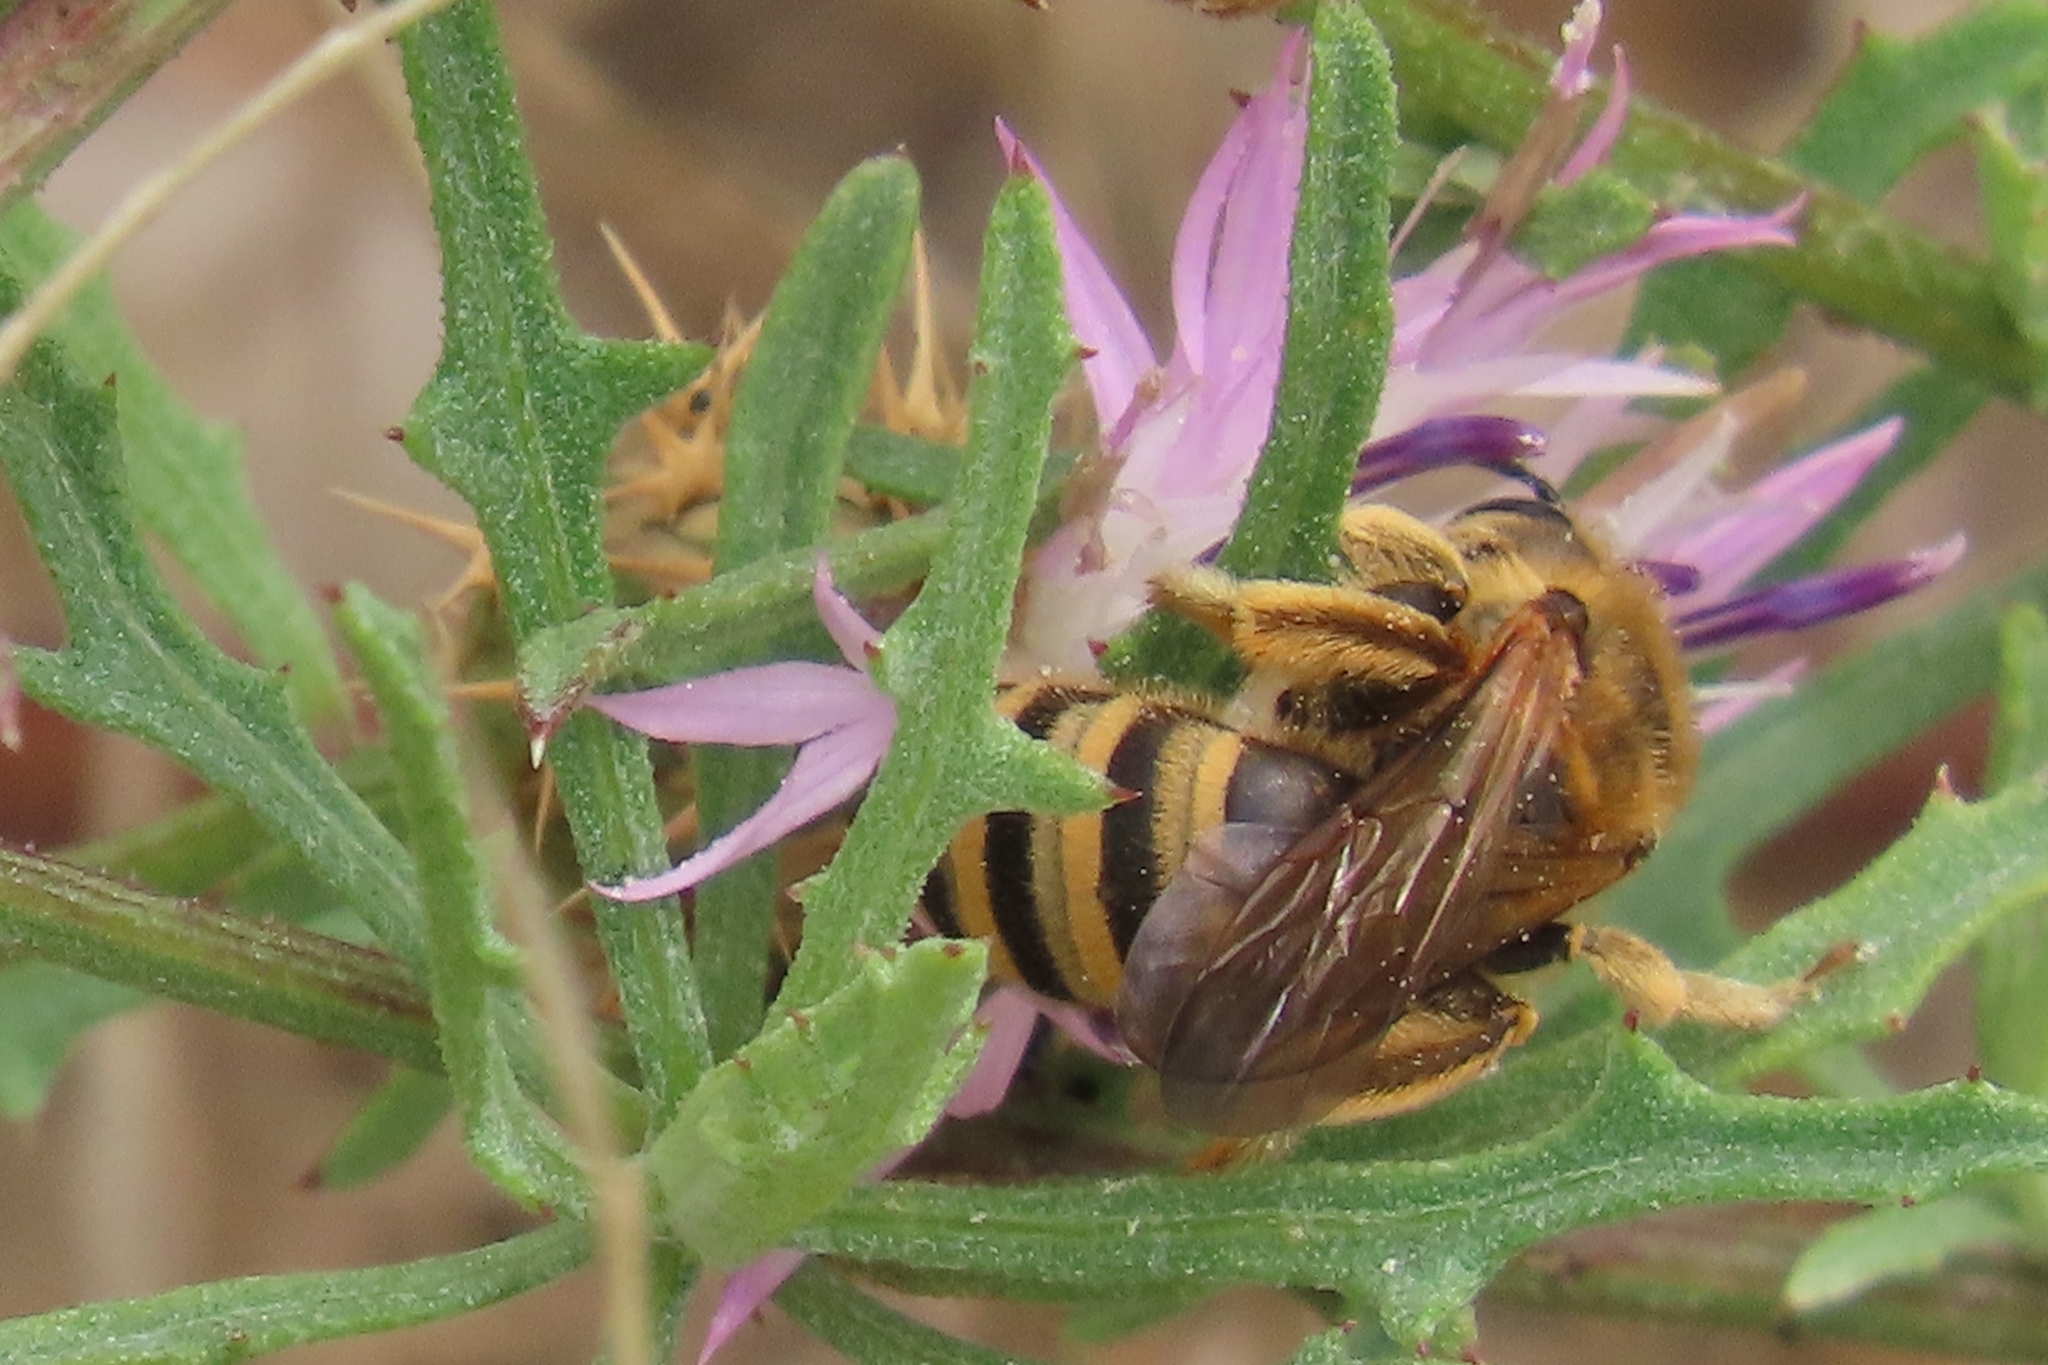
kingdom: Animalia
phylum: Arthropoda
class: Insecta
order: Hymenoptera
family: Halictidae
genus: Halictus
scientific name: Halictus scabiosae
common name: Great banded furrow bee
